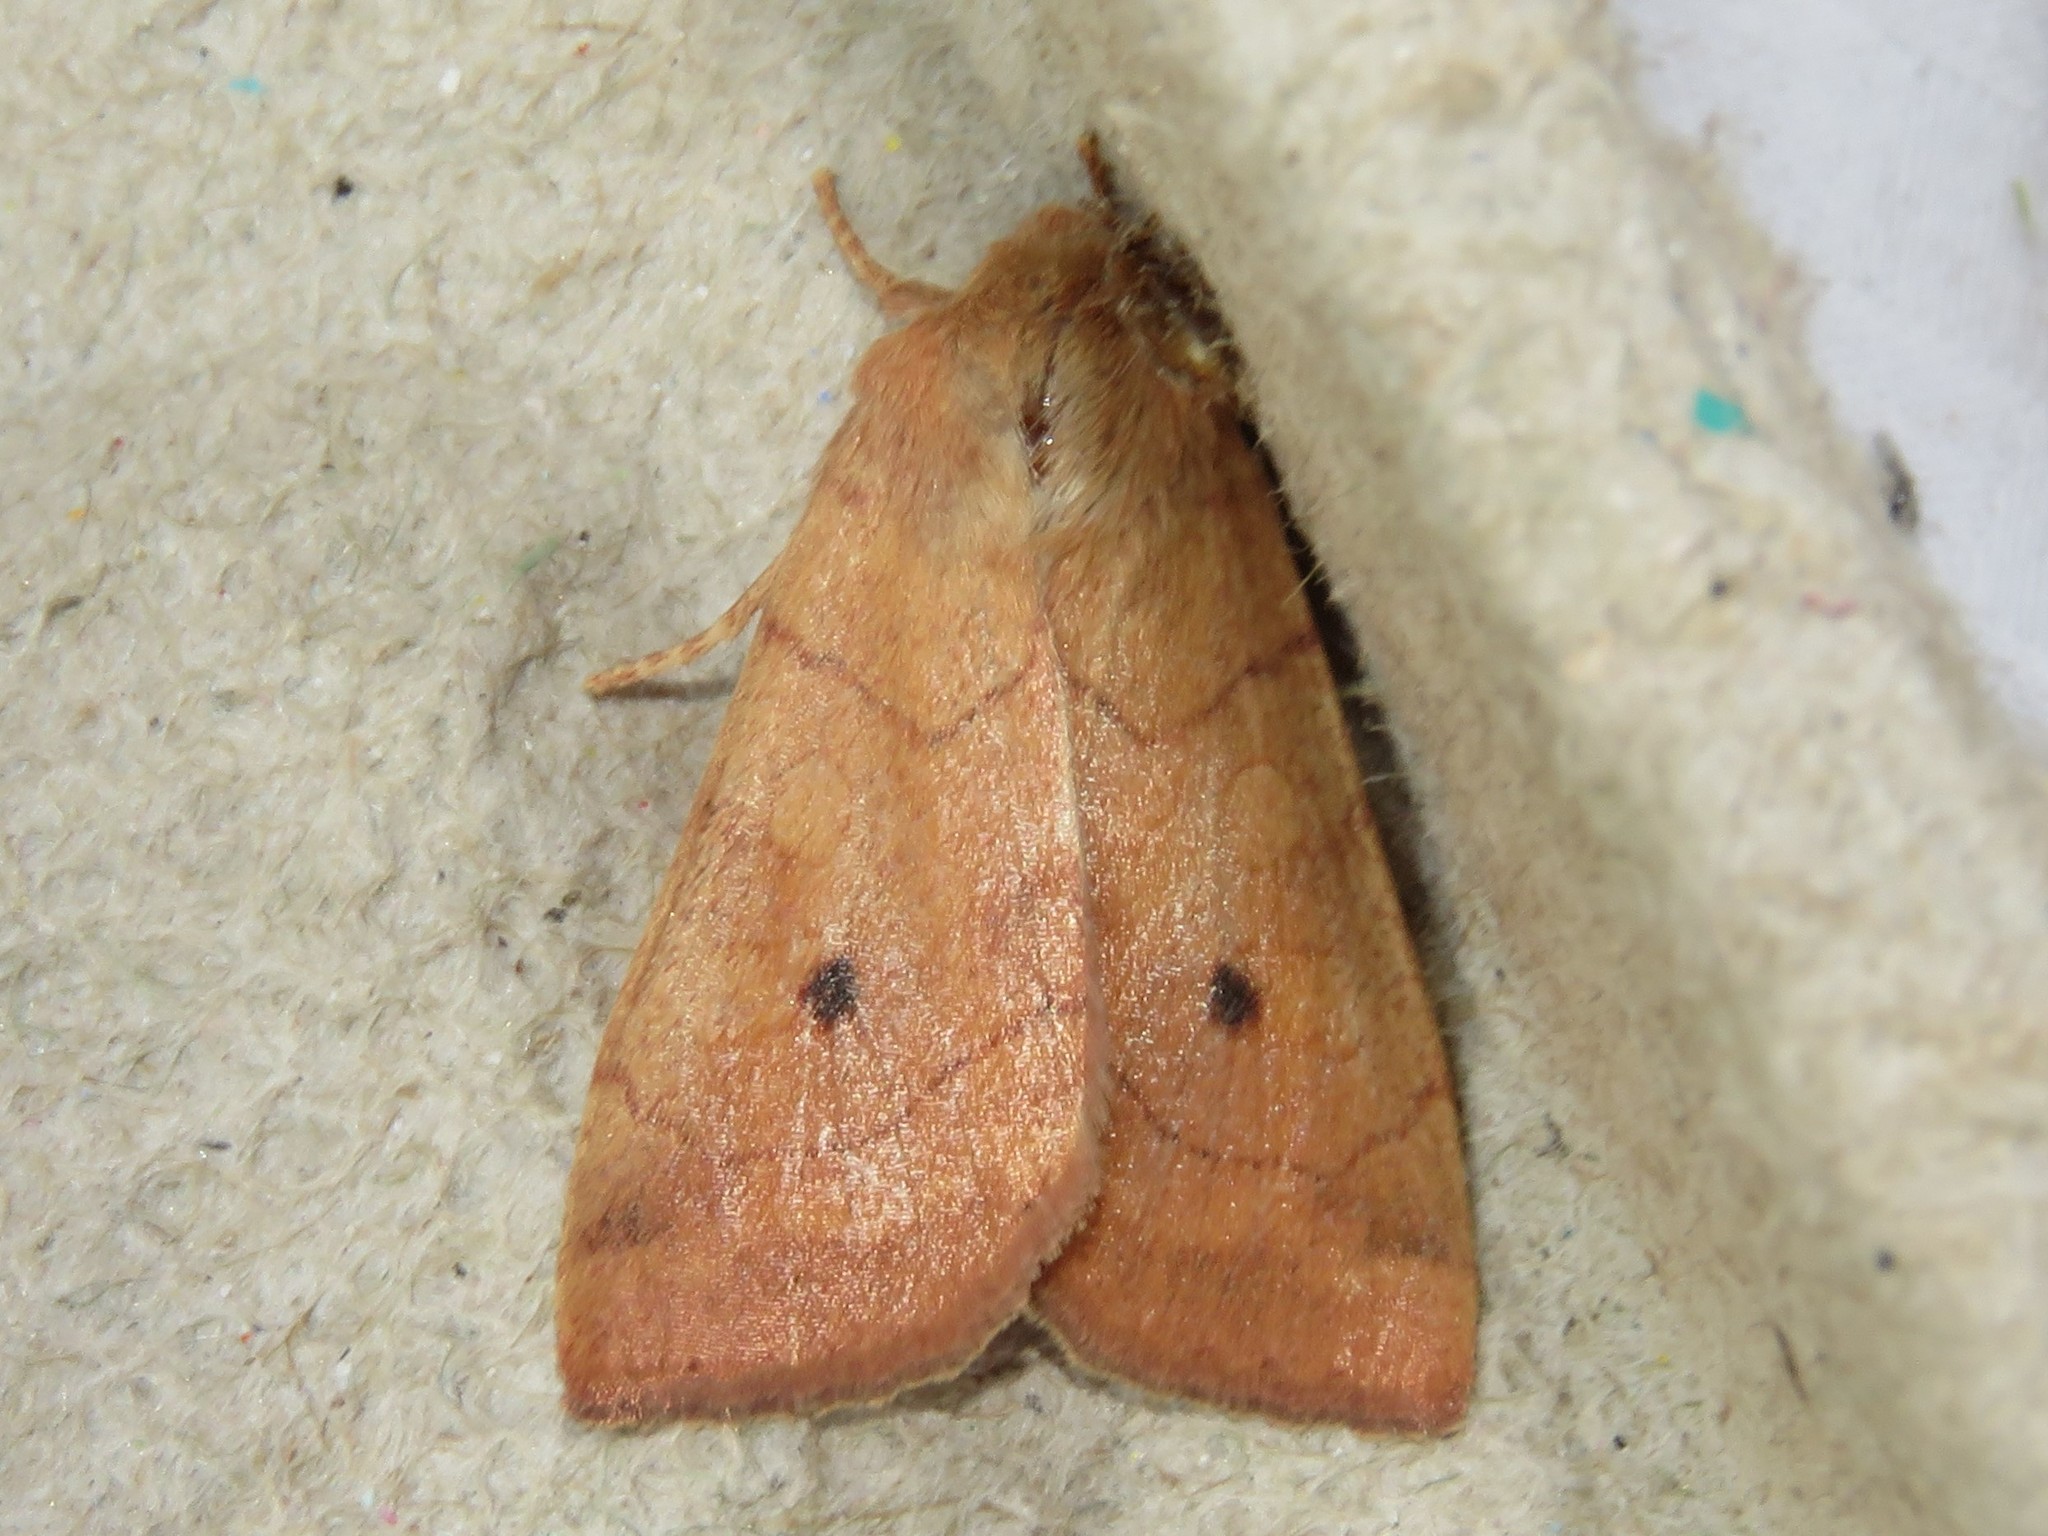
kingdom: Animalia
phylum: Arthropoda
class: Insecta
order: Lepidoptera
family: Noctuidae
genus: Enargia
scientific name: Enargia infumata
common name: Smoked sallow
